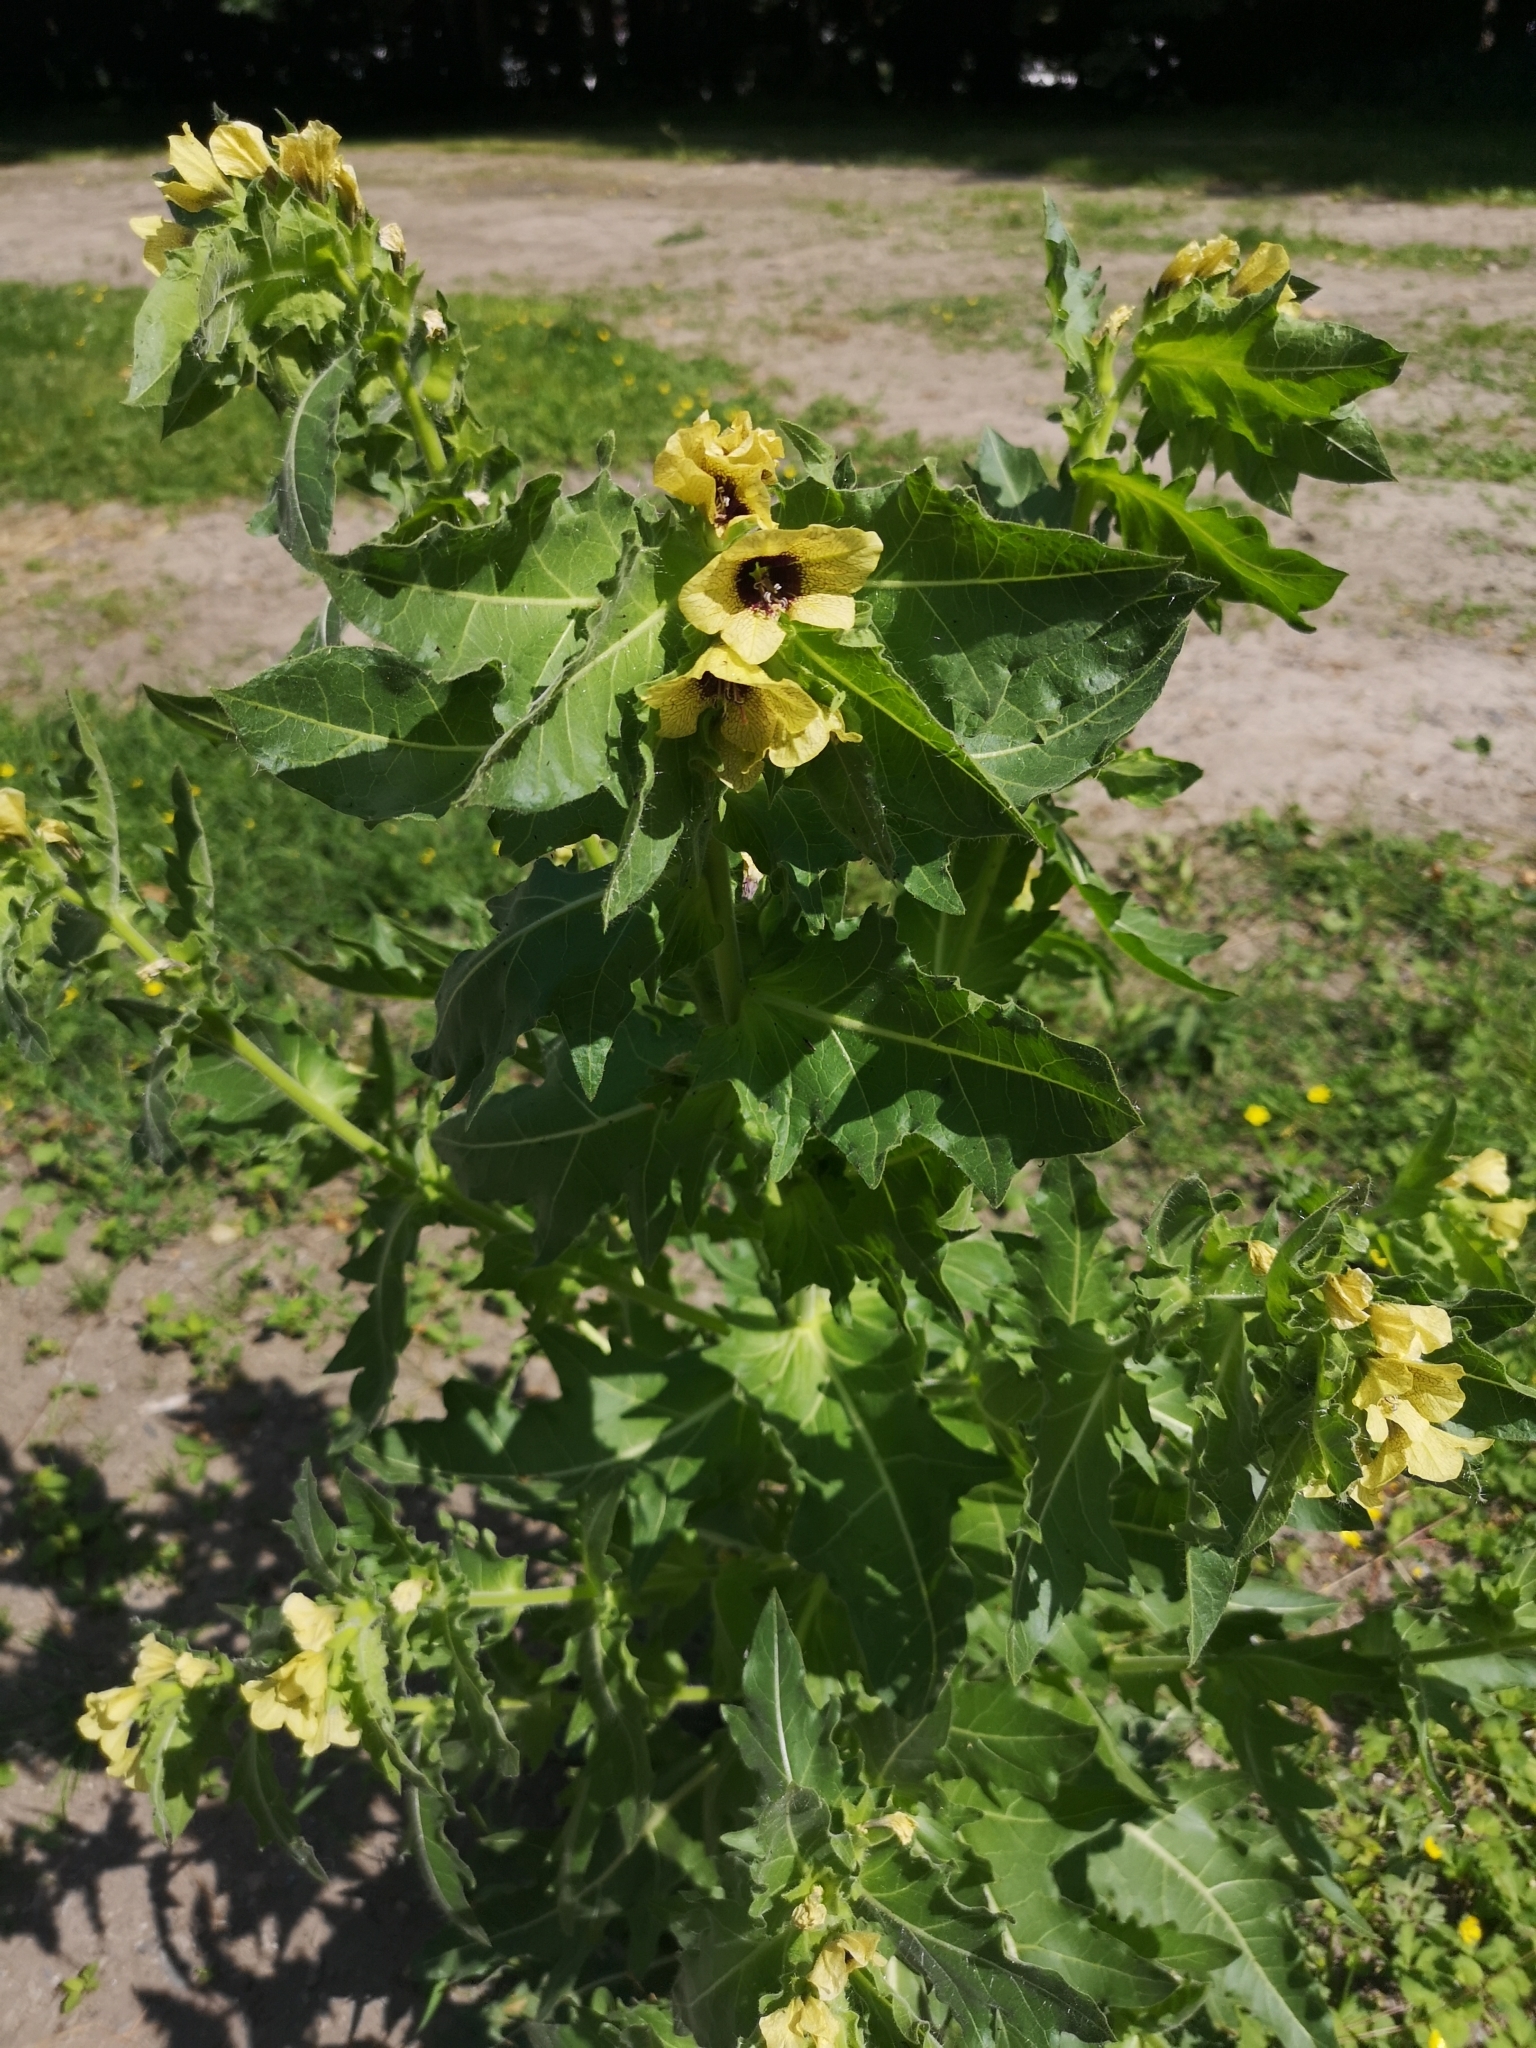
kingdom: Plantae
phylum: Tracheophyta
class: Magnoliopsida
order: Solanales
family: Solanaceae
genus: Hyoscyamus
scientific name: Hyoscyamus niger
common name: Henbane
